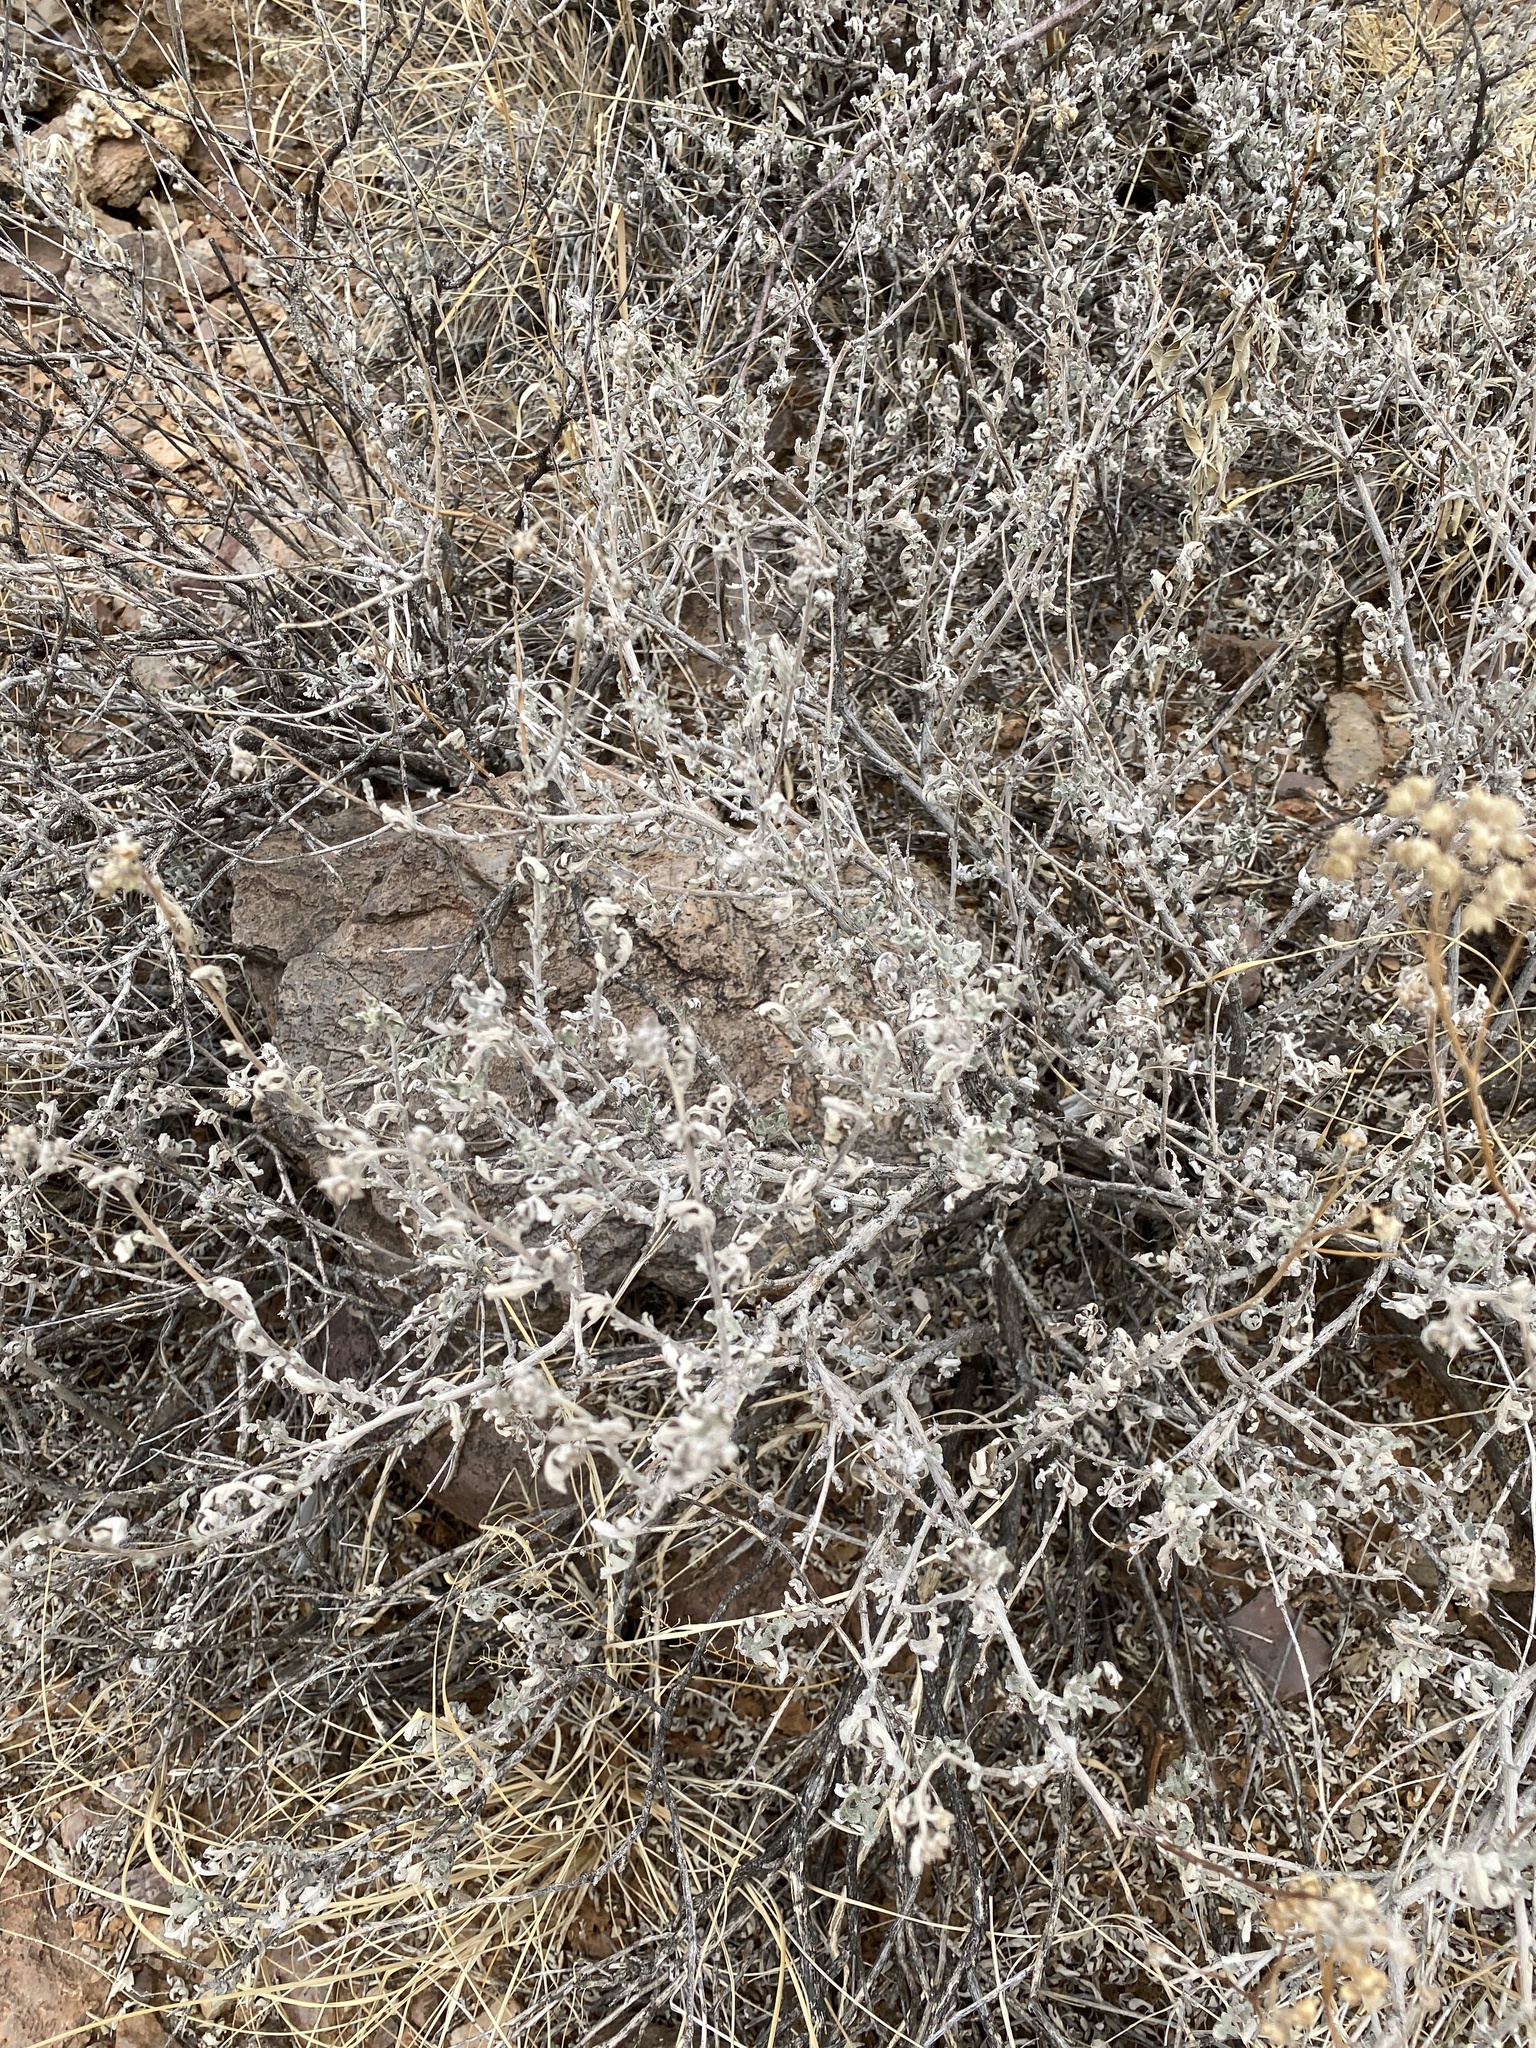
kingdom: Plantae
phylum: Tracheophyta
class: Magnoliopsida
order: Asterales
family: Asteraceae
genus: Parthenium
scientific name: Parthenium incanum
